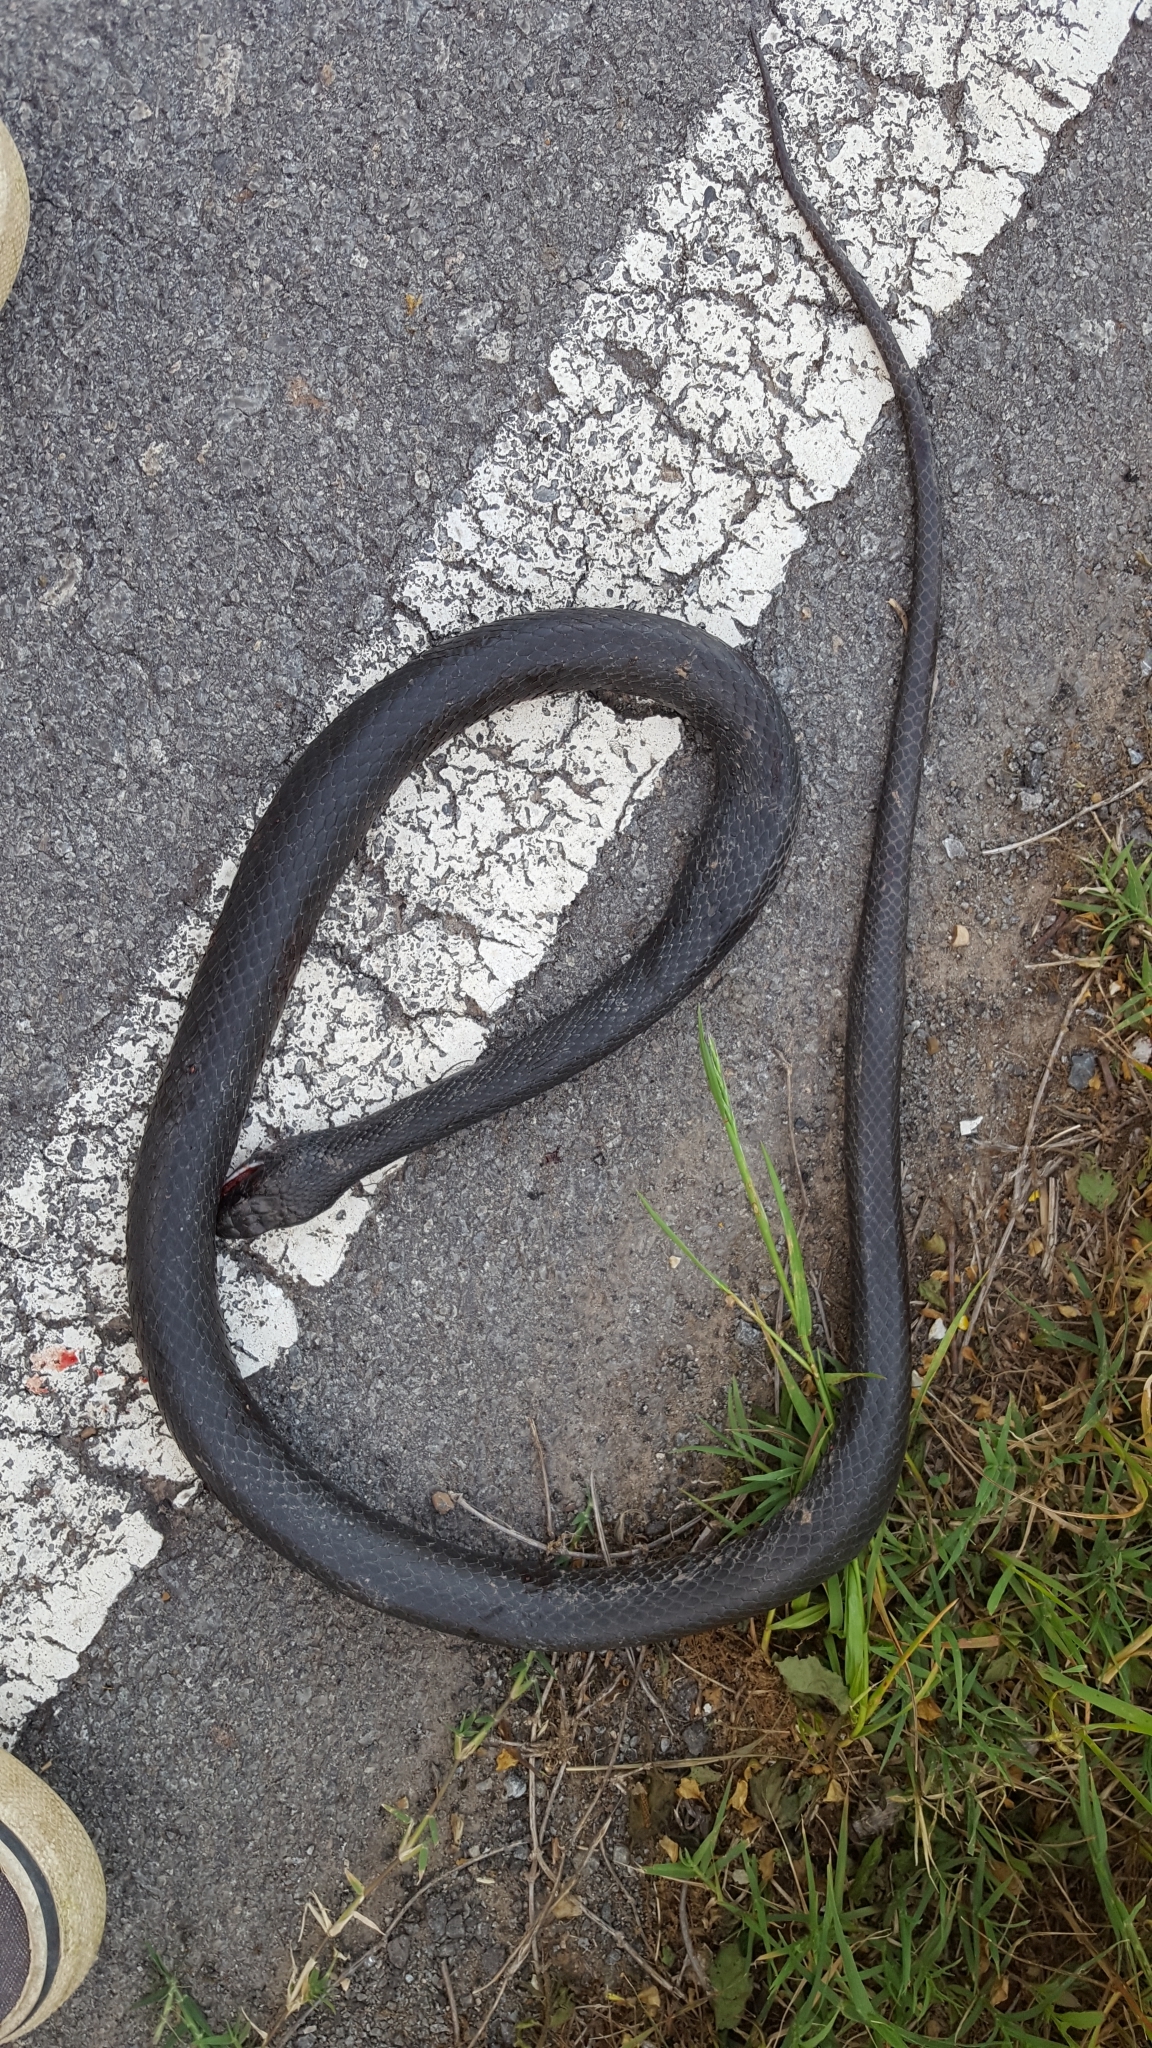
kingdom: Animalia
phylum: Chordata
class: Squamata
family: Colubridae
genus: Coluber
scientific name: Coluber constrictor
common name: Eastern racer
